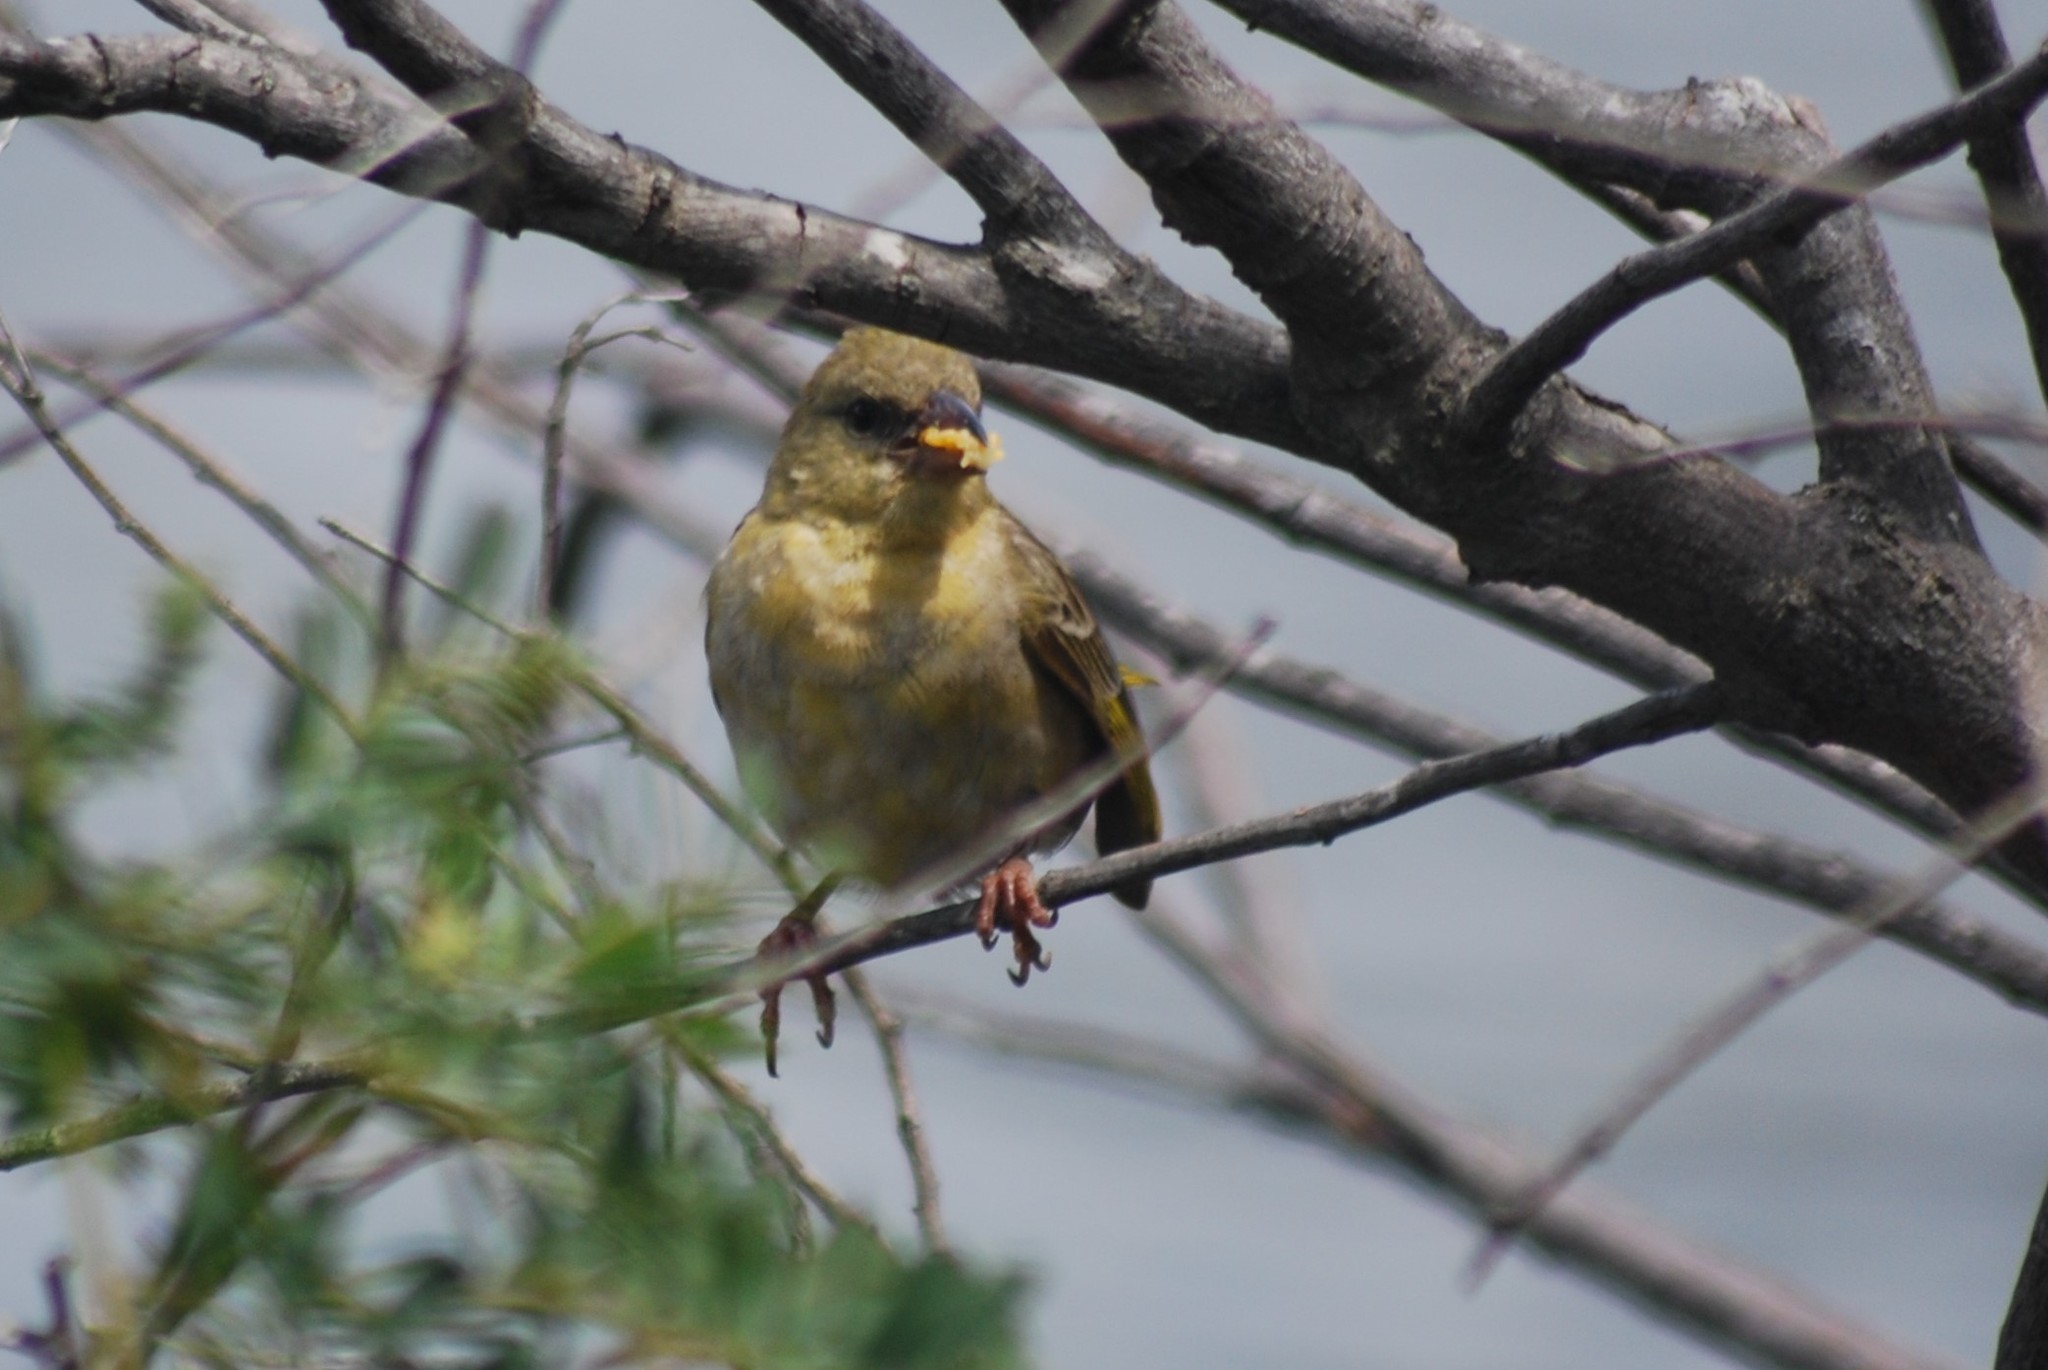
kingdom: Animalia
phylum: Chordata
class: Aves
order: Passeriformes
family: Ploceidae
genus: Ploceus
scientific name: Ploceus velatus
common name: Southern masked weaver
